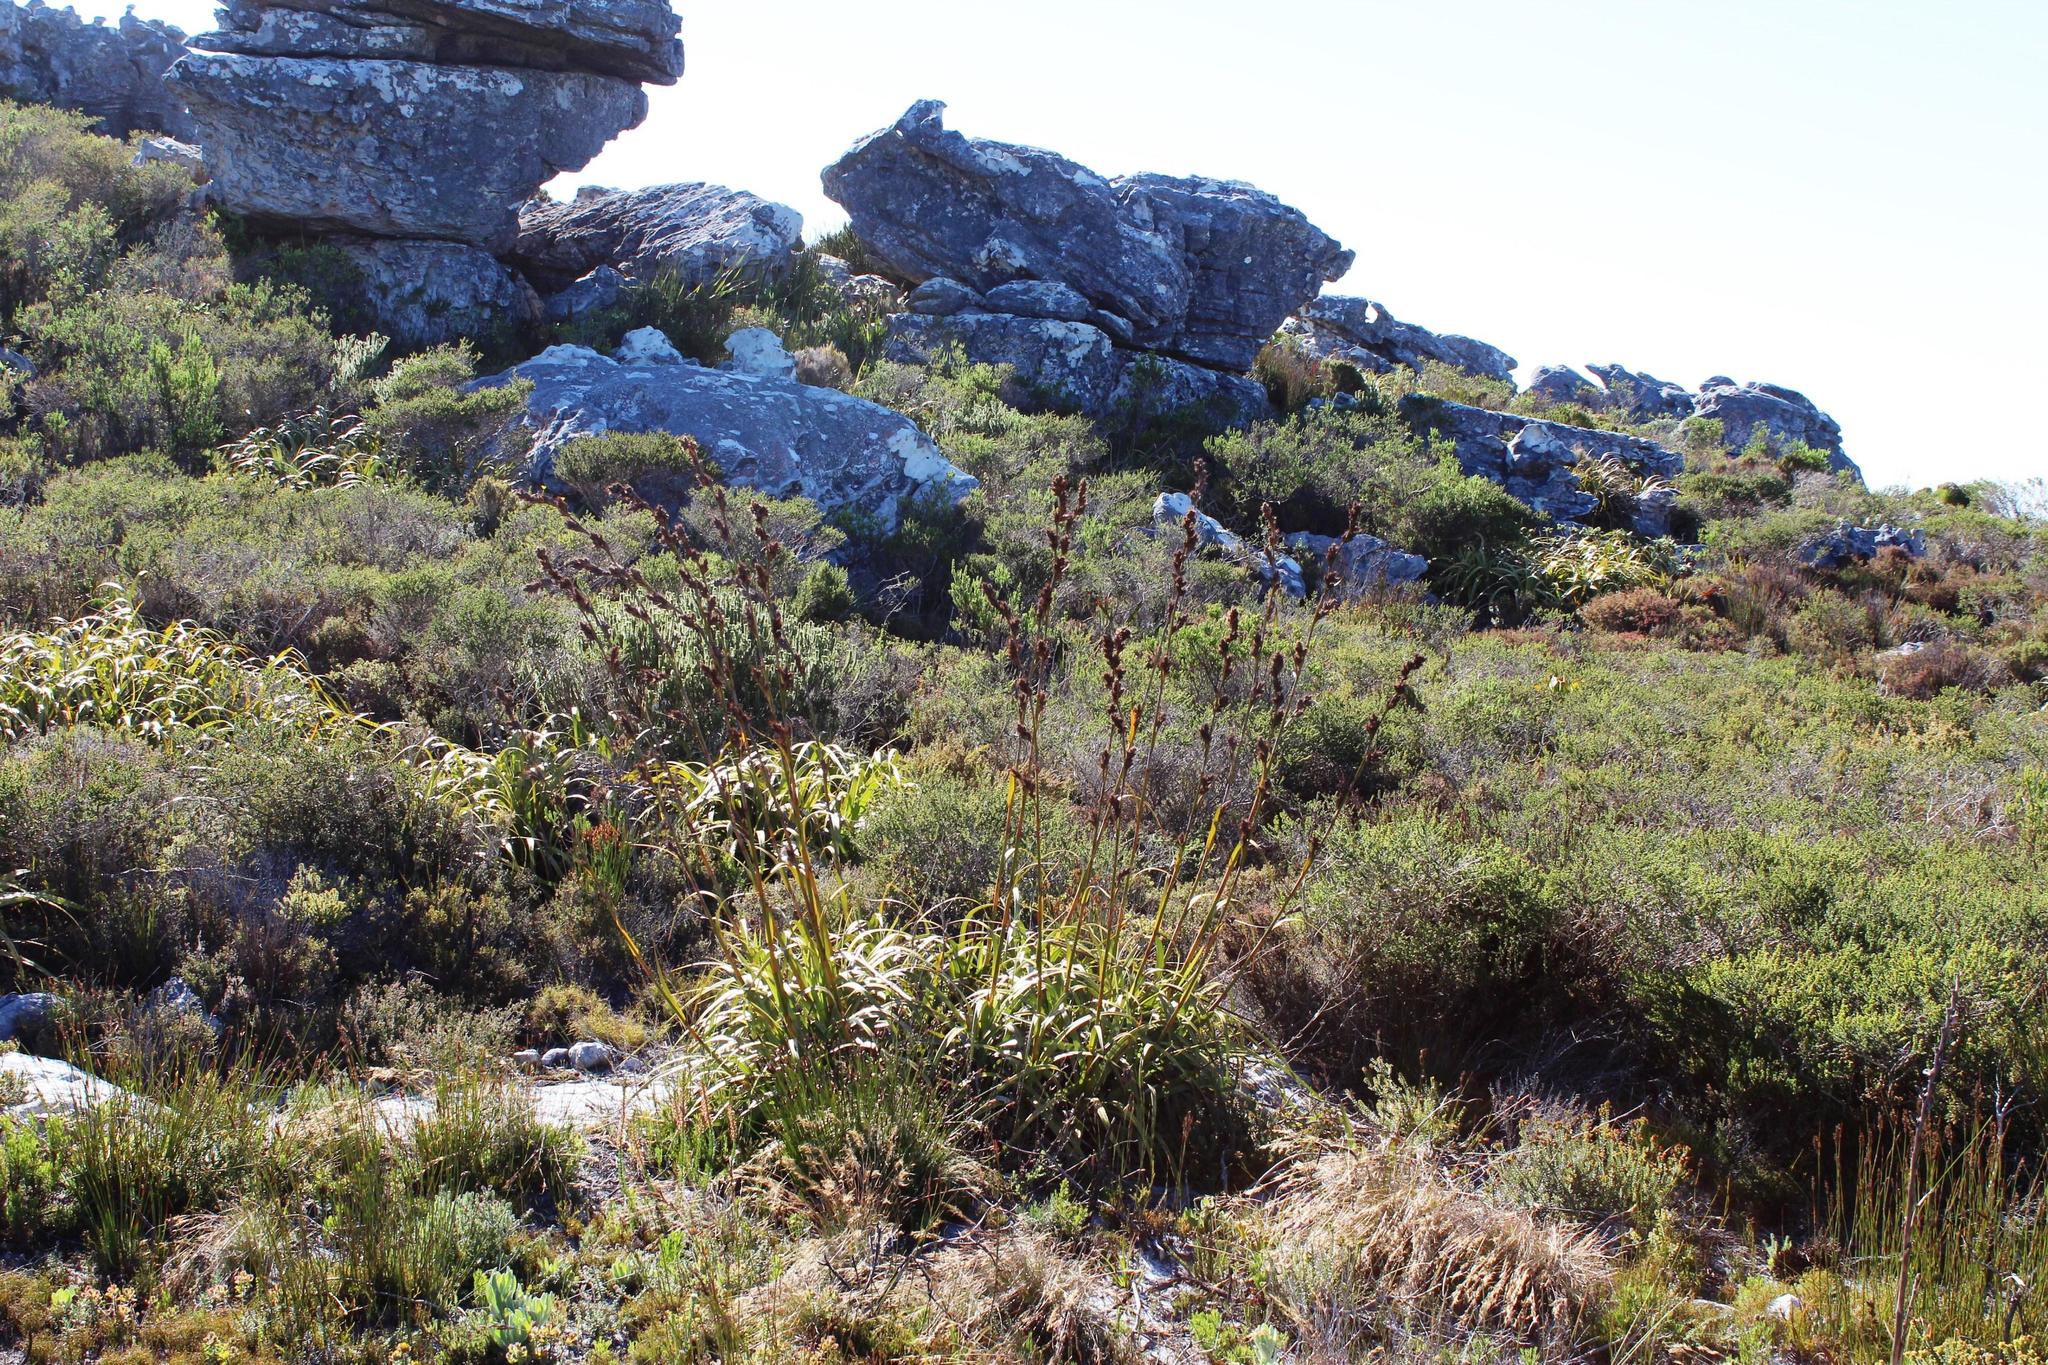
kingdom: Plantae
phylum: Tracheophyta
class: Liliopsida
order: Poales
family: Cyperaceae
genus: Tetraria
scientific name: Tetraria thermalis
